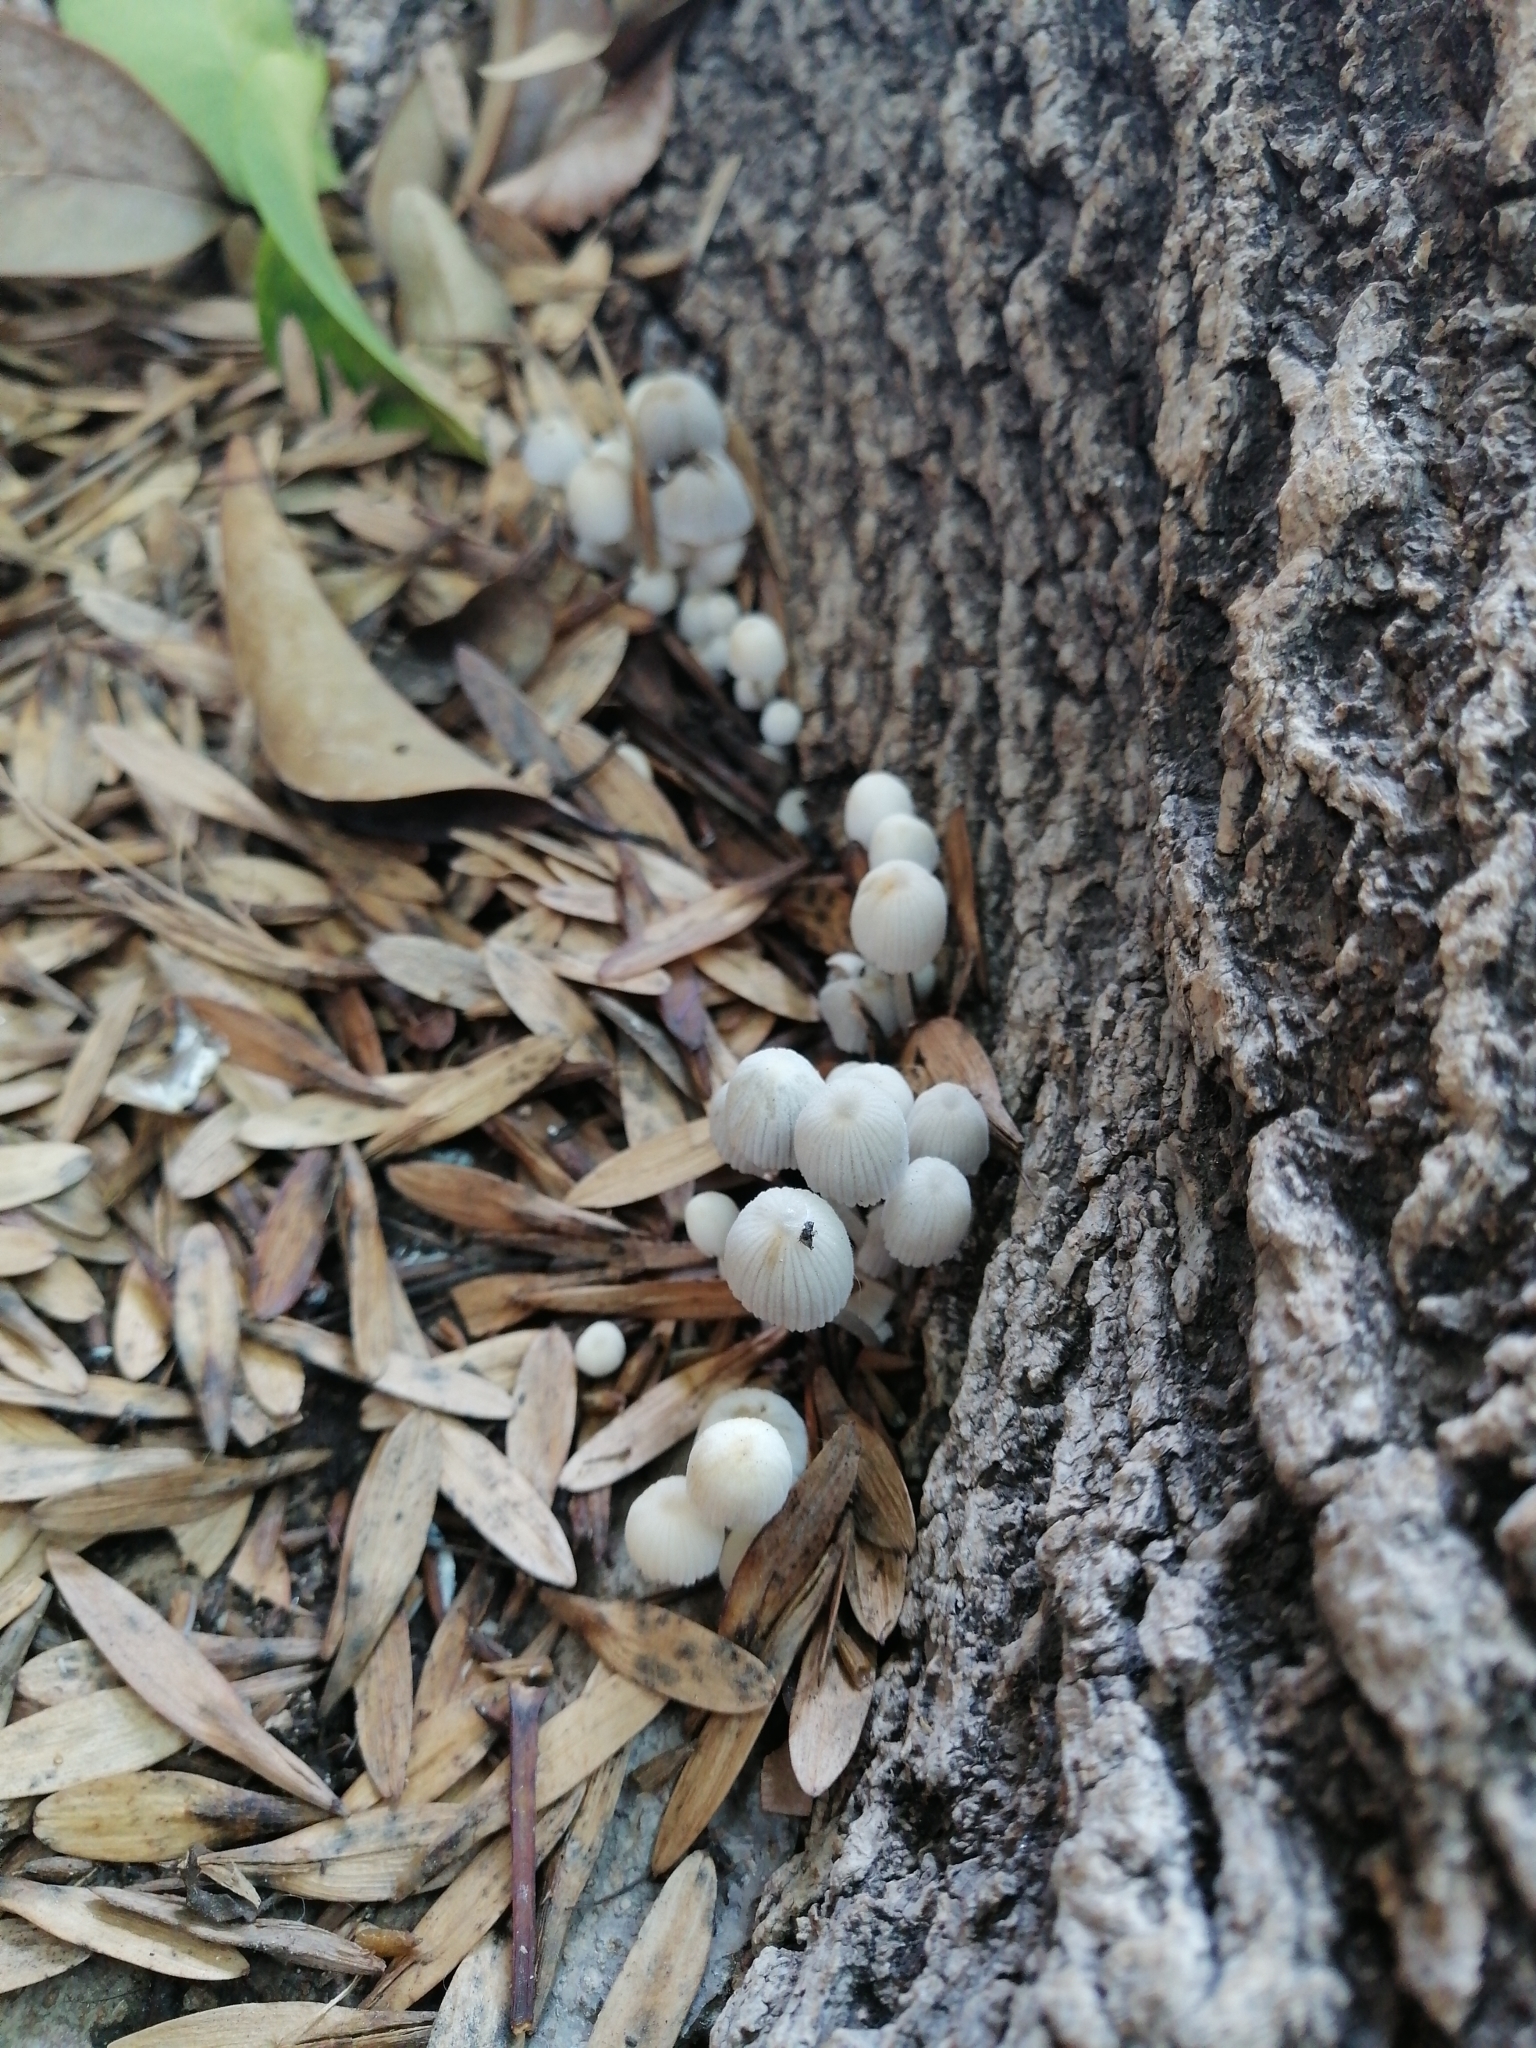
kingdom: Fungi
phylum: Basidiomycota
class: Agaricomycetes
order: Agaricales
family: Psathyrellaceae
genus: Coprinellus
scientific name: Coprinellus disseminatus
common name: Fairies' bonnets
